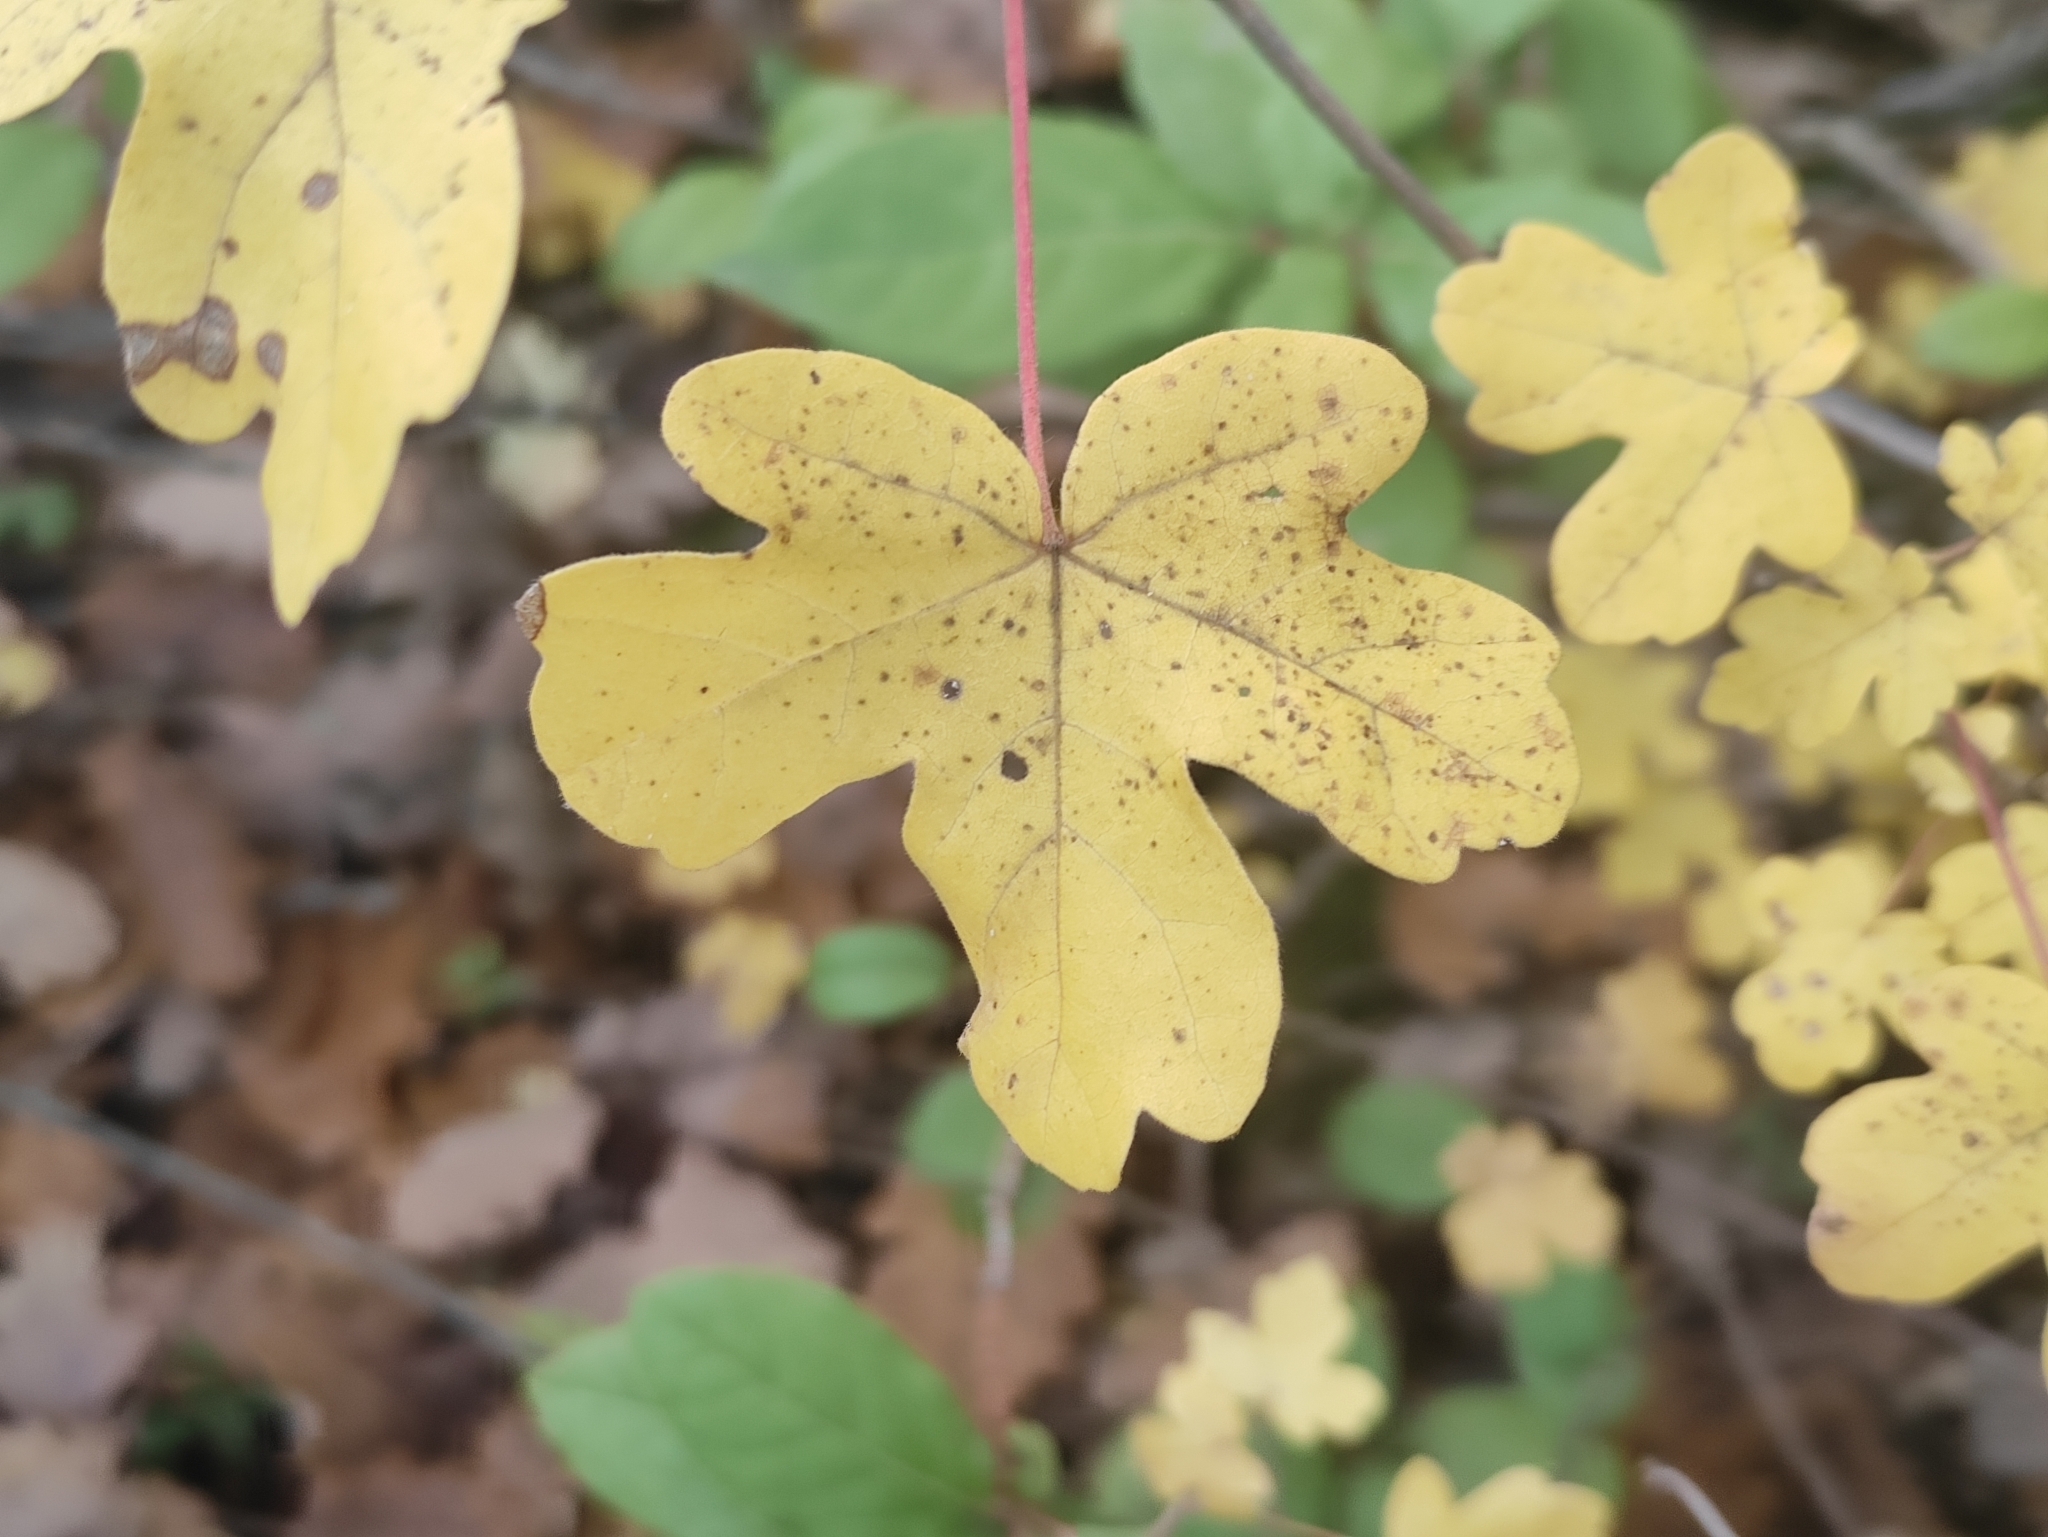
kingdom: Plantae
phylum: Tracheophyta
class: Magnoliopsida
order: Sapindales
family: Sapindaceae
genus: Acer
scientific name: Acer campestre
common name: Field maple
